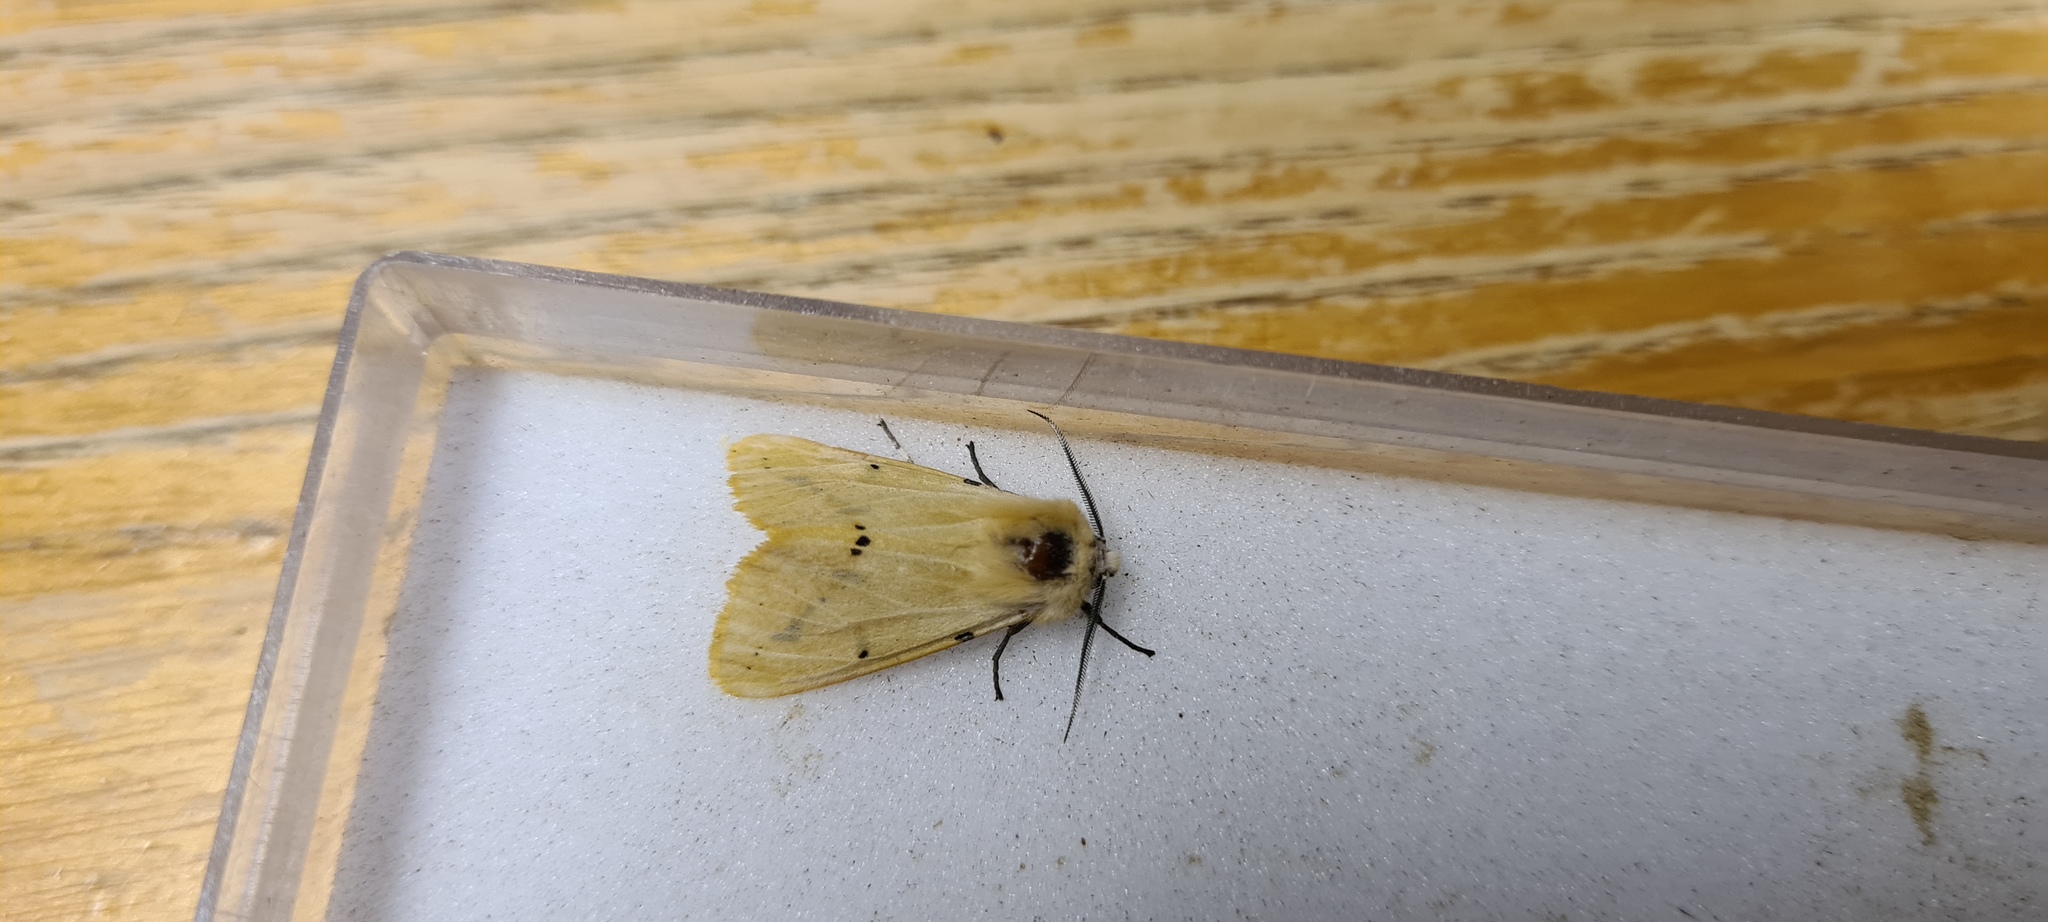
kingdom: Animalia
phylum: Arthropoda
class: Insecta
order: Lepidoptera
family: Erebidae
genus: Spilarctia
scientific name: Spilarctia lutea
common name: Buff ermine
